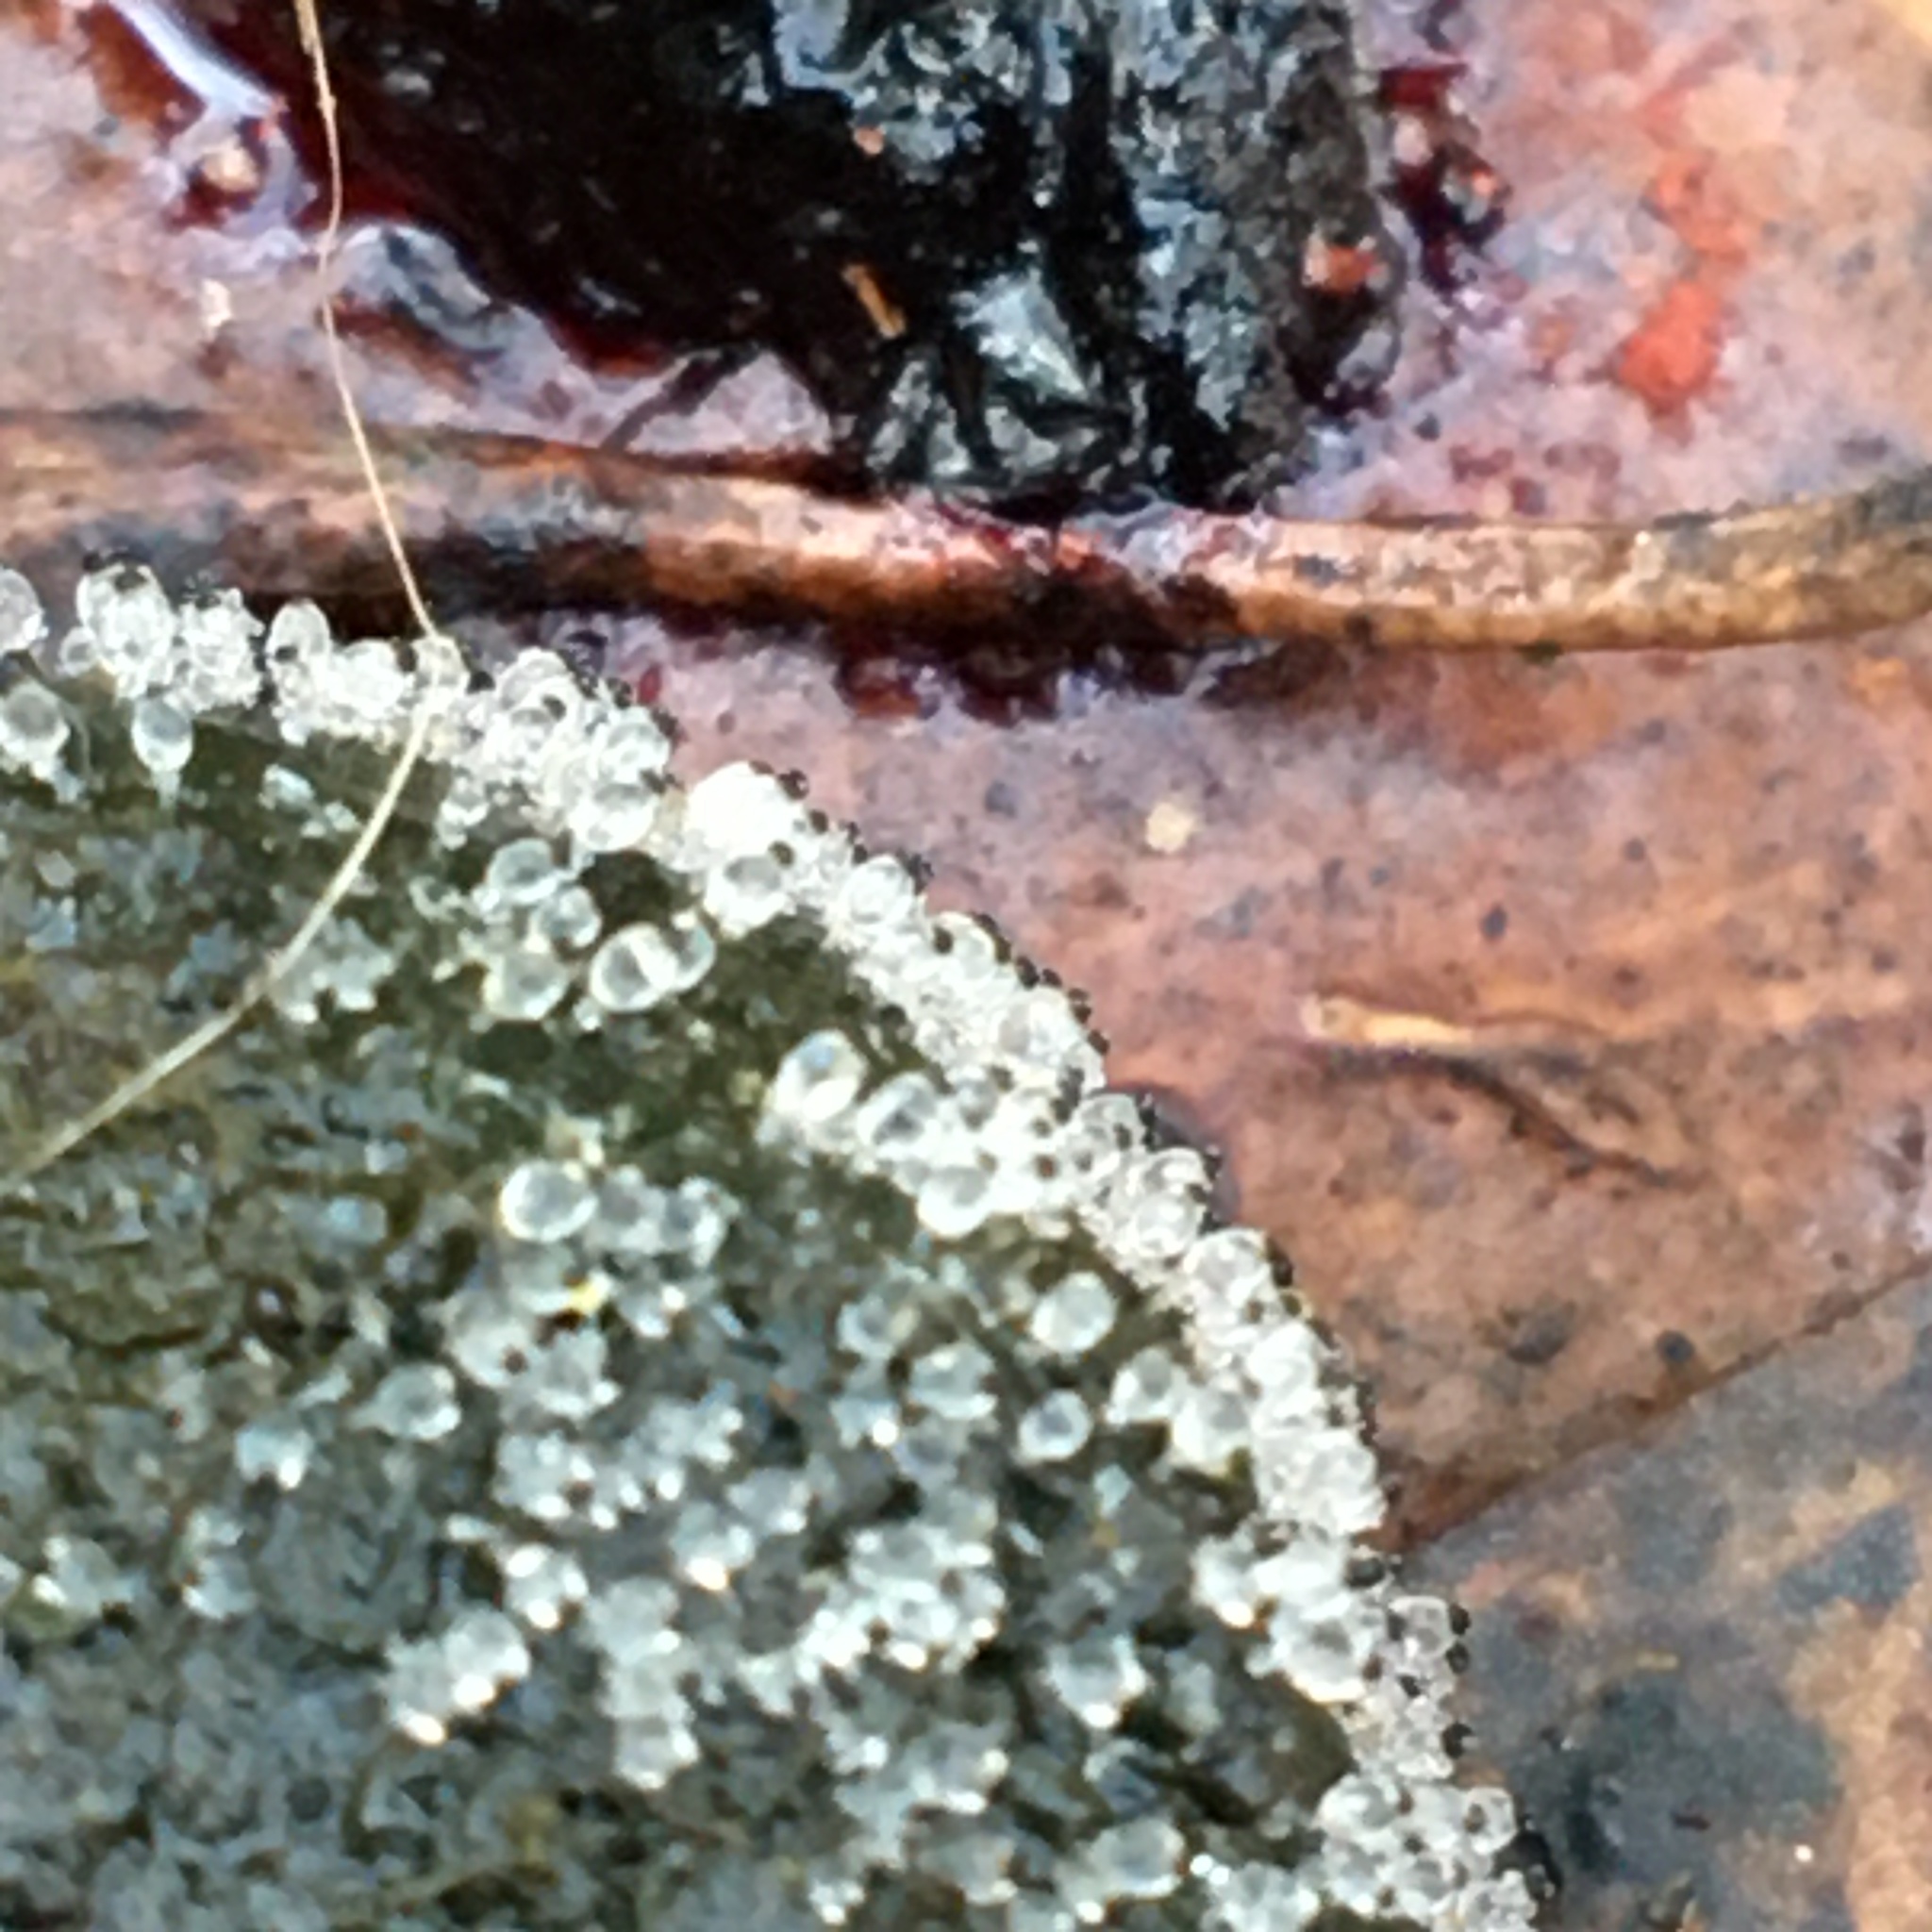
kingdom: Fungi
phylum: Mucoromycota
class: Mucoromycetes
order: Mucorales
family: Pilobolaceae
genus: Pilobolus
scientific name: Pilobolus
